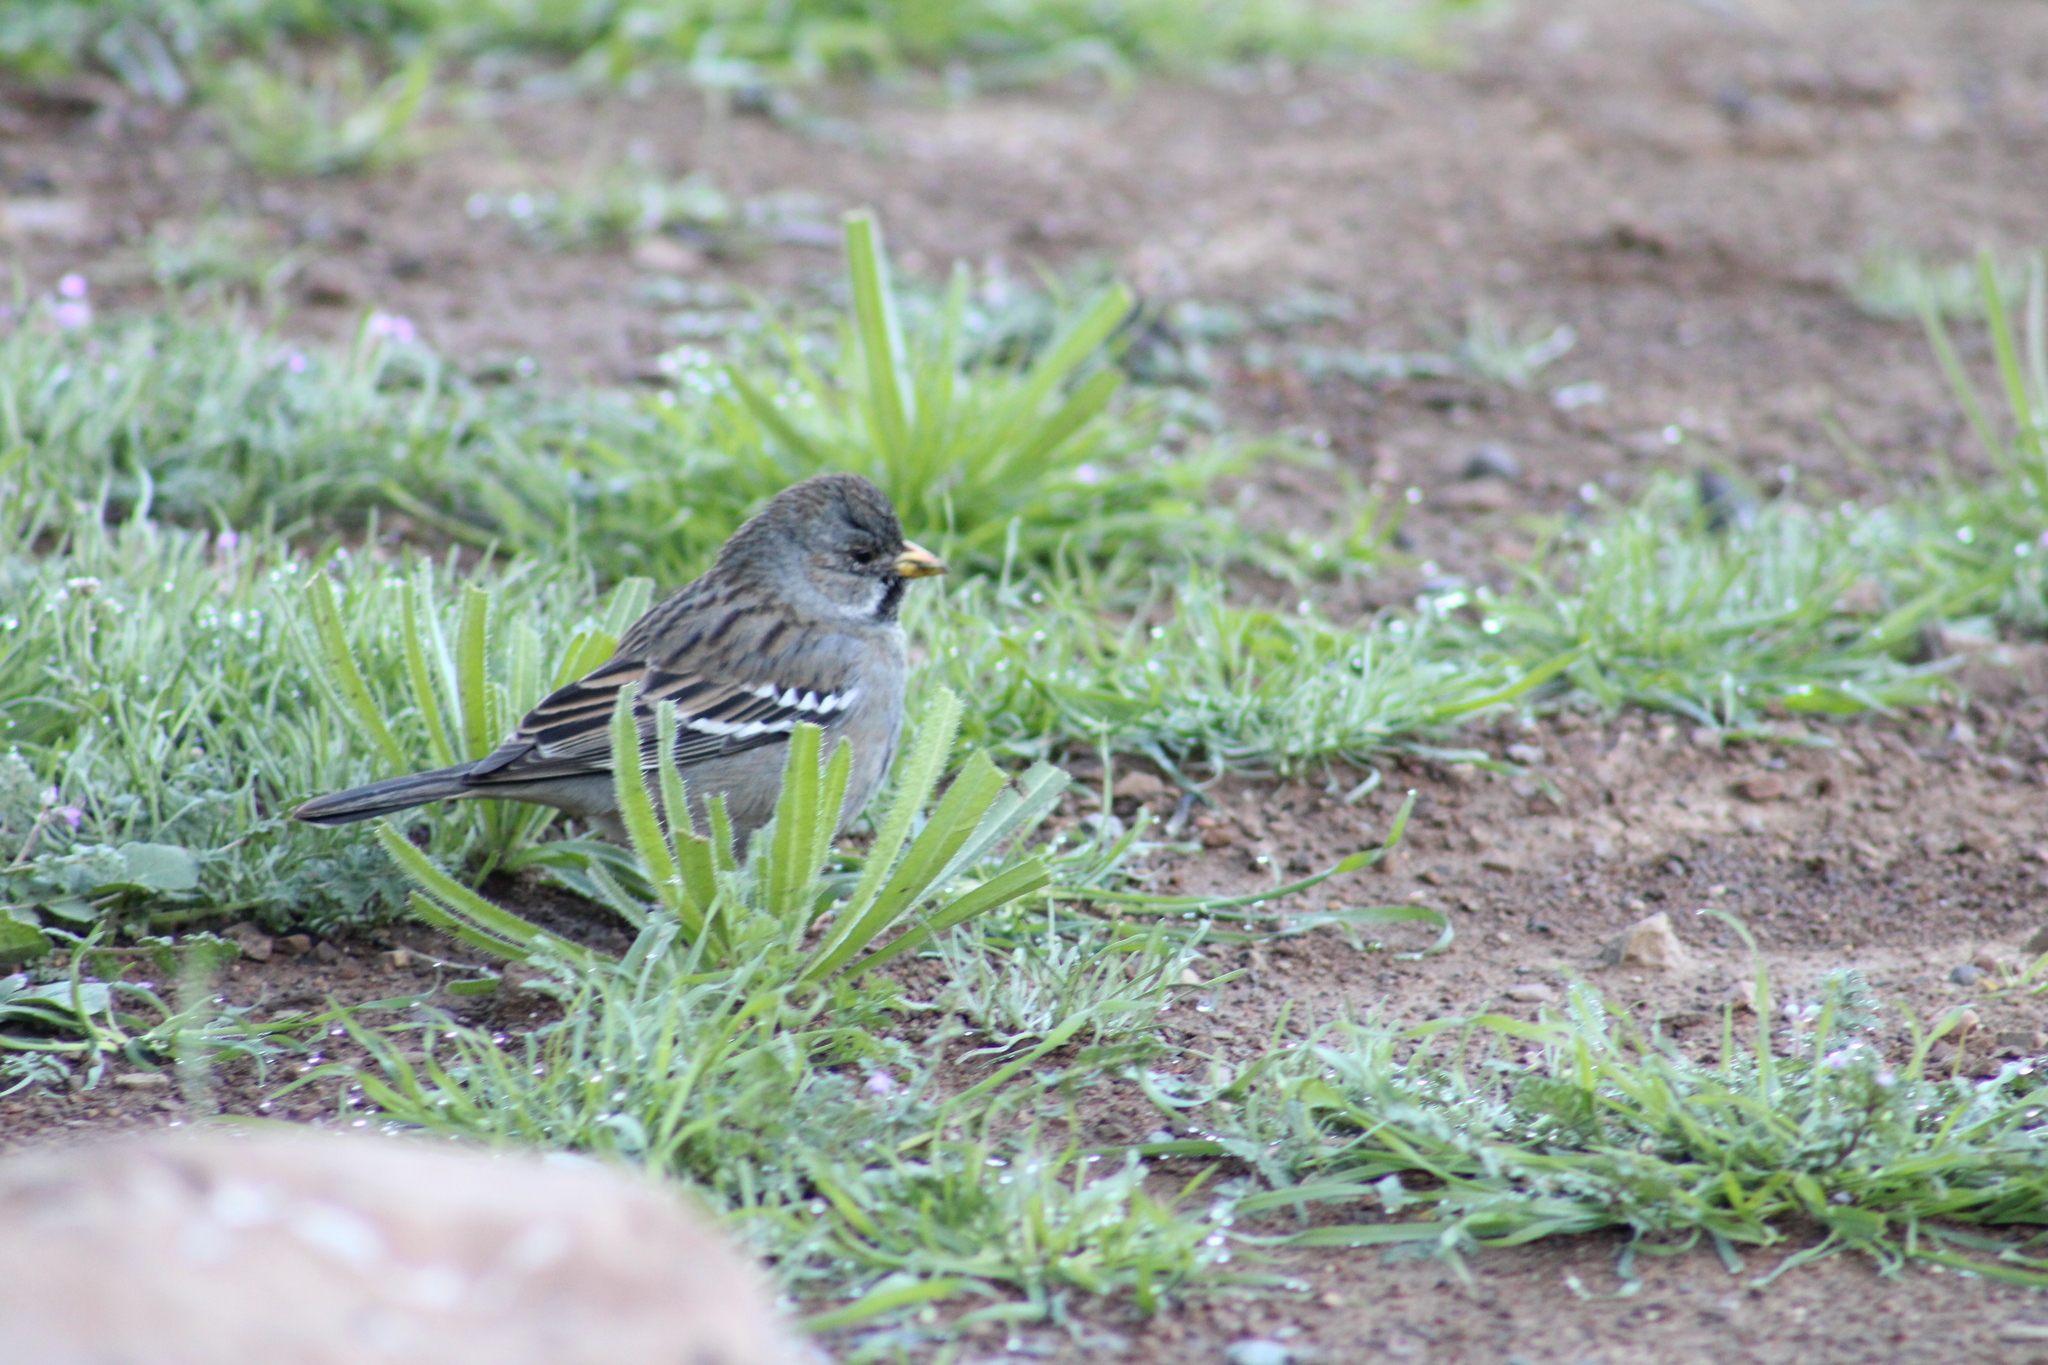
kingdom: Animalia
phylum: Chordata
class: Aves
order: Passeriformes
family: Thraupidae
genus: Rhopospina
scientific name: Rhopospina fruticeti
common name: Mourning sierra finch
